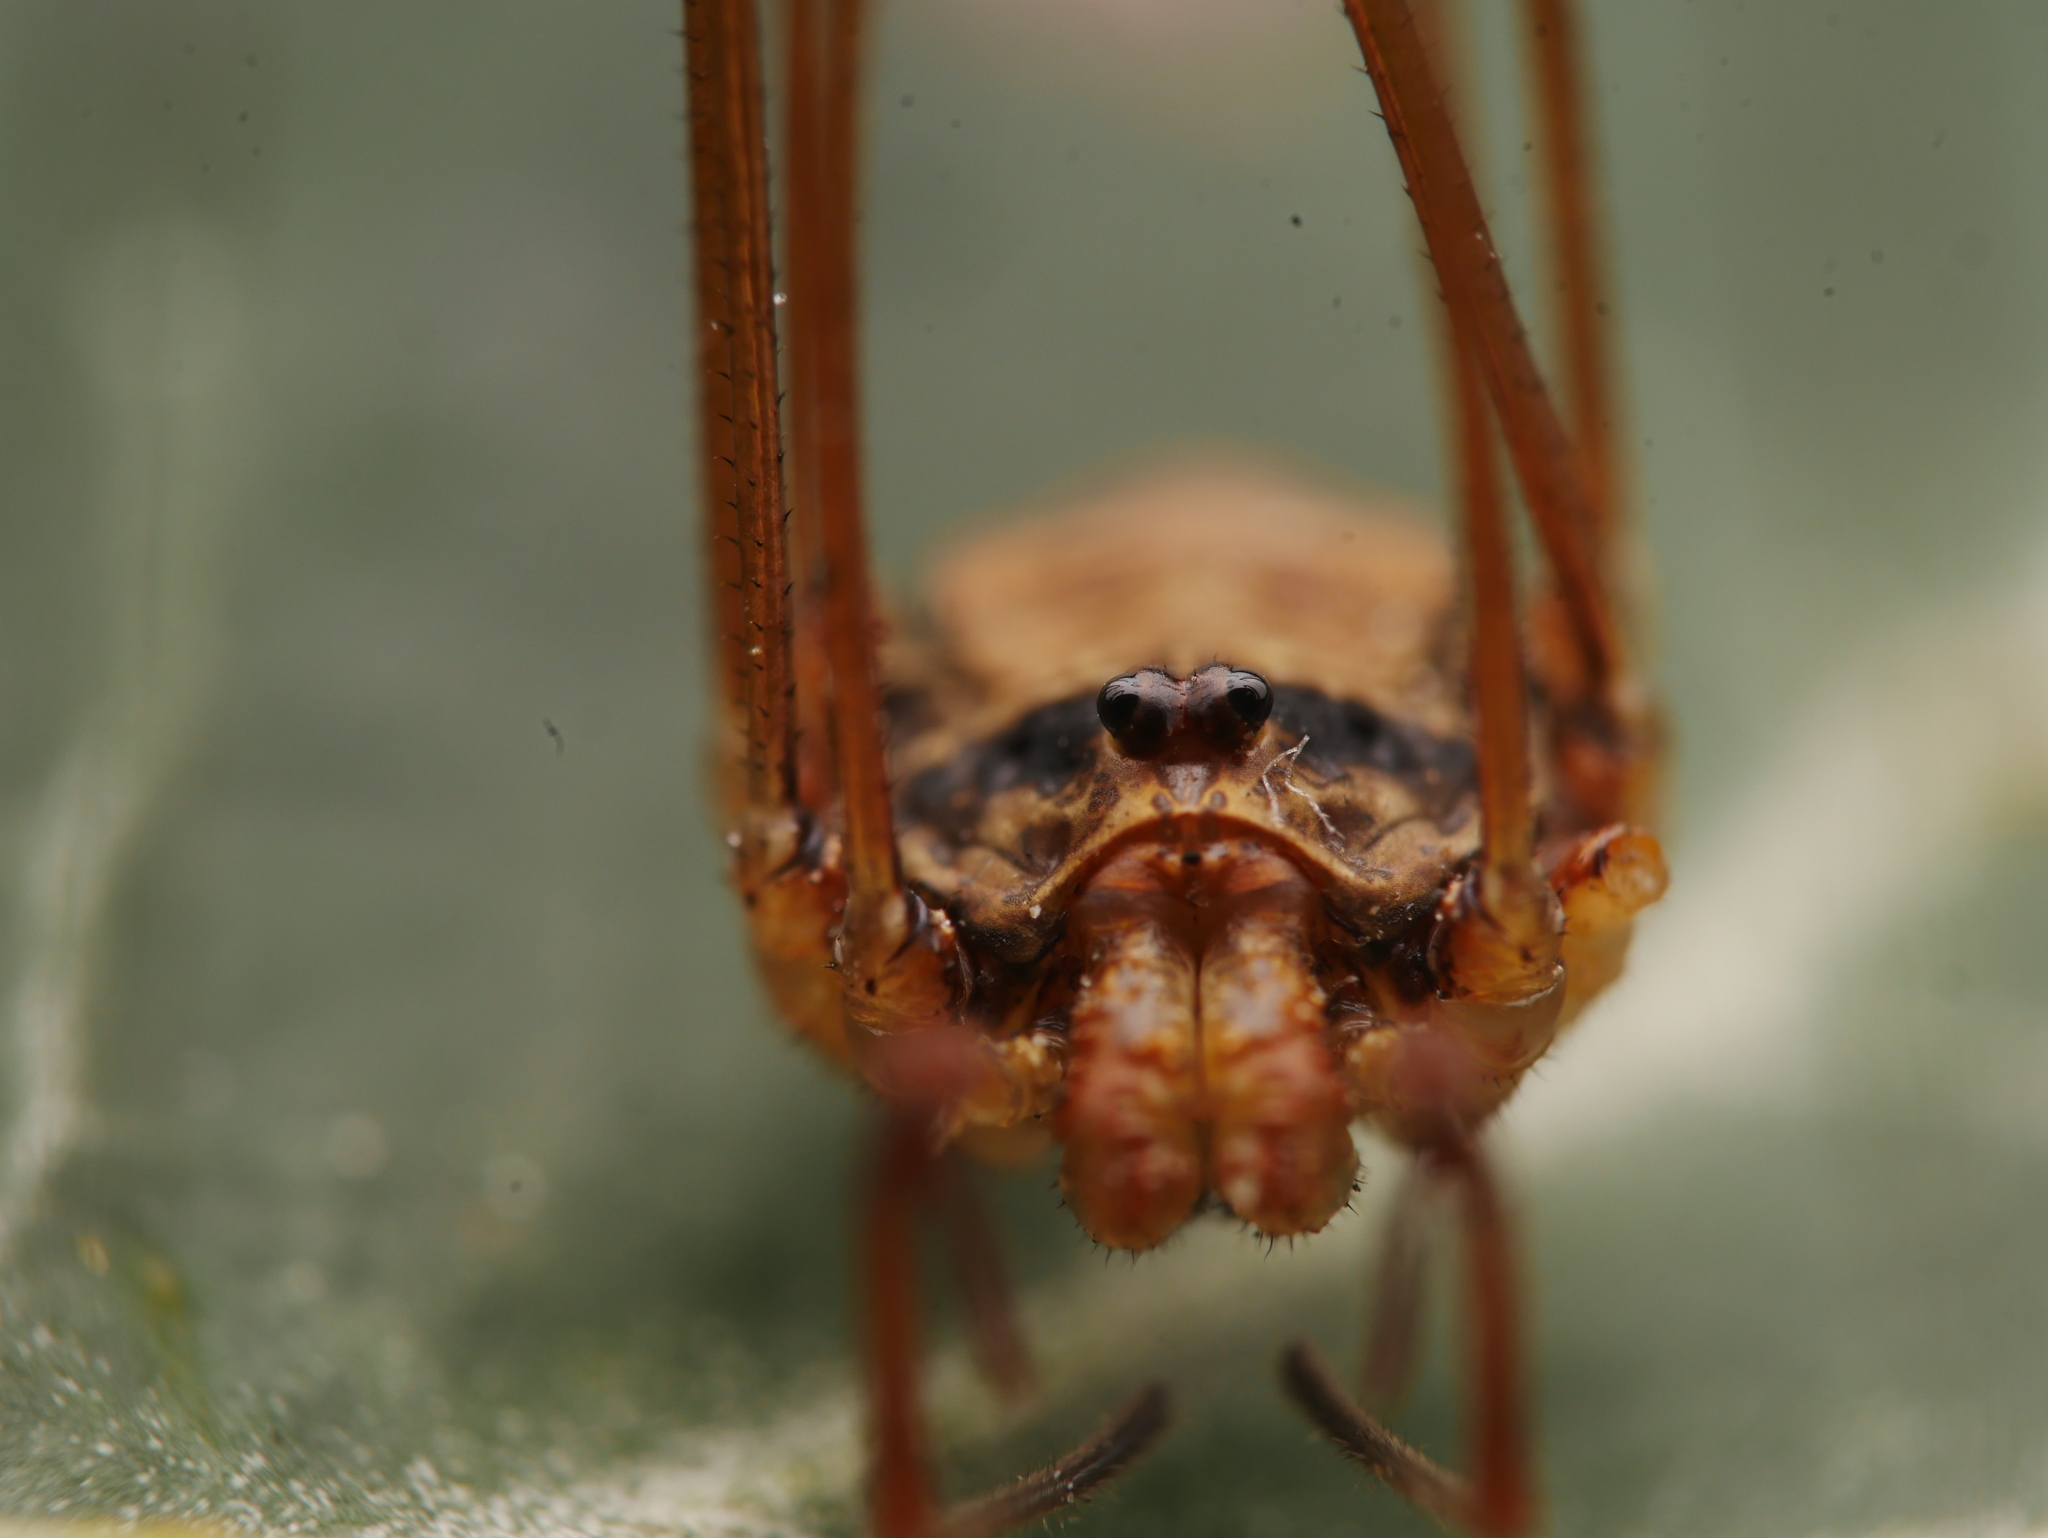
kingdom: Animalia
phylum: Arthropoda
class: Arachnida
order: Opiliones
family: Phalangiidae
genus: Dicranopalpus
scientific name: Dicranopalpus ramosus
